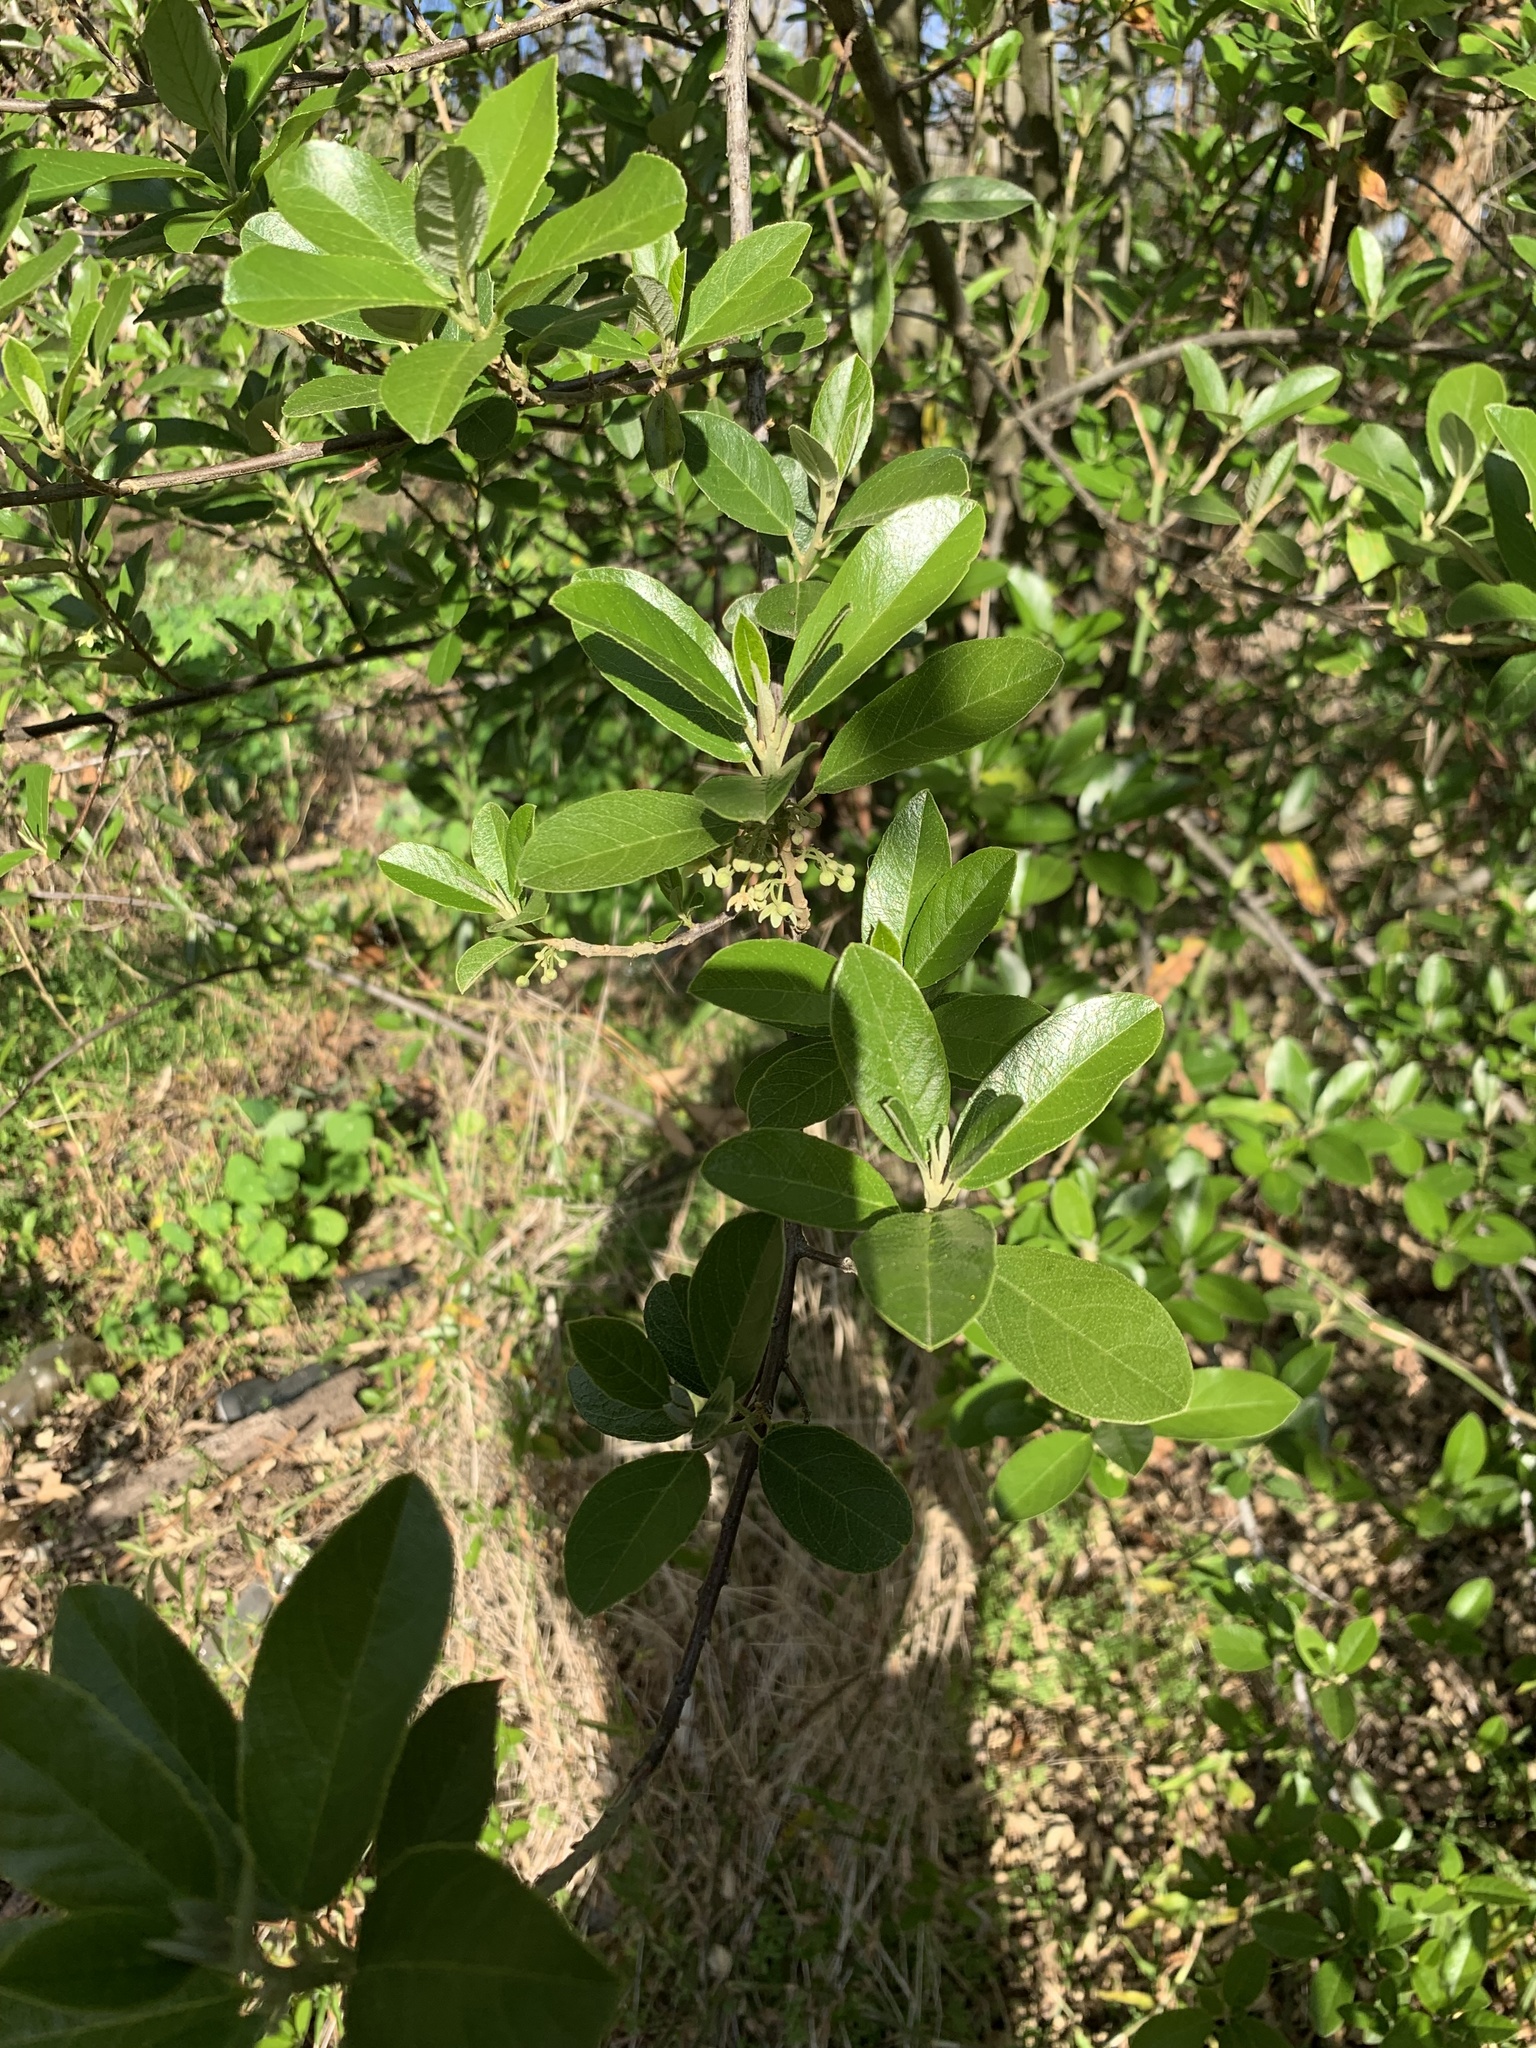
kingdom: Plantae
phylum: Tracheophyta
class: Magnoliopsida
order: Malpighiales
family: Achariaceae
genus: Kiggelaria
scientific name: Kiggelaria africana
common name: Wild peach
